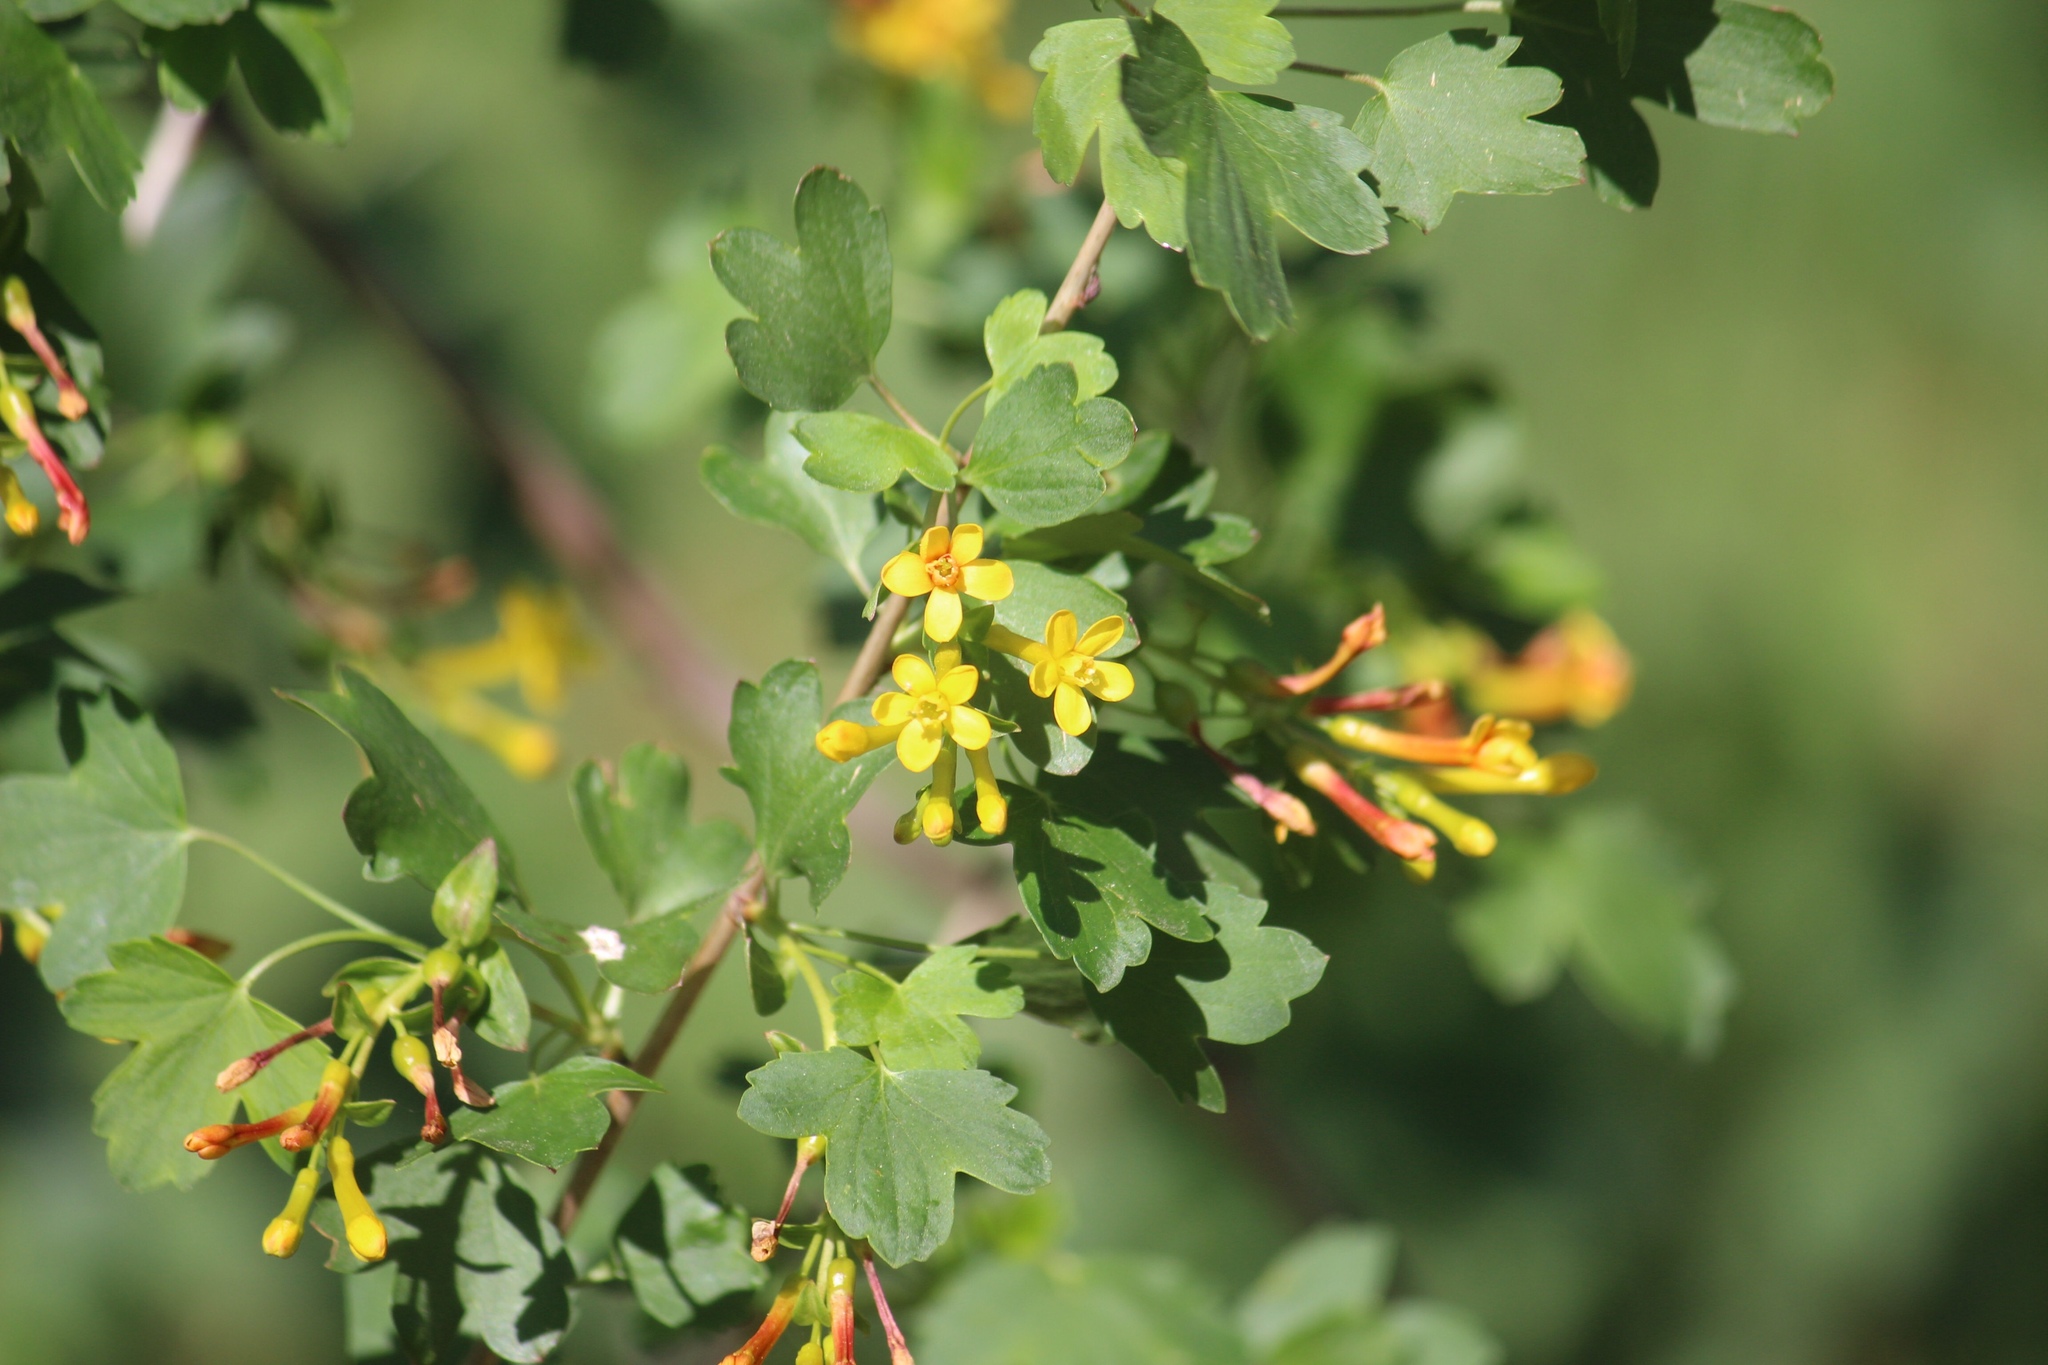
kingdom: Plantae
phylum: Tracheophyta
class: Magnoliopsida
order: Saxifragales
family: Grossulariaceae
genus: Ribes
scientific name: Ribes aureum
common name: Golden currant
